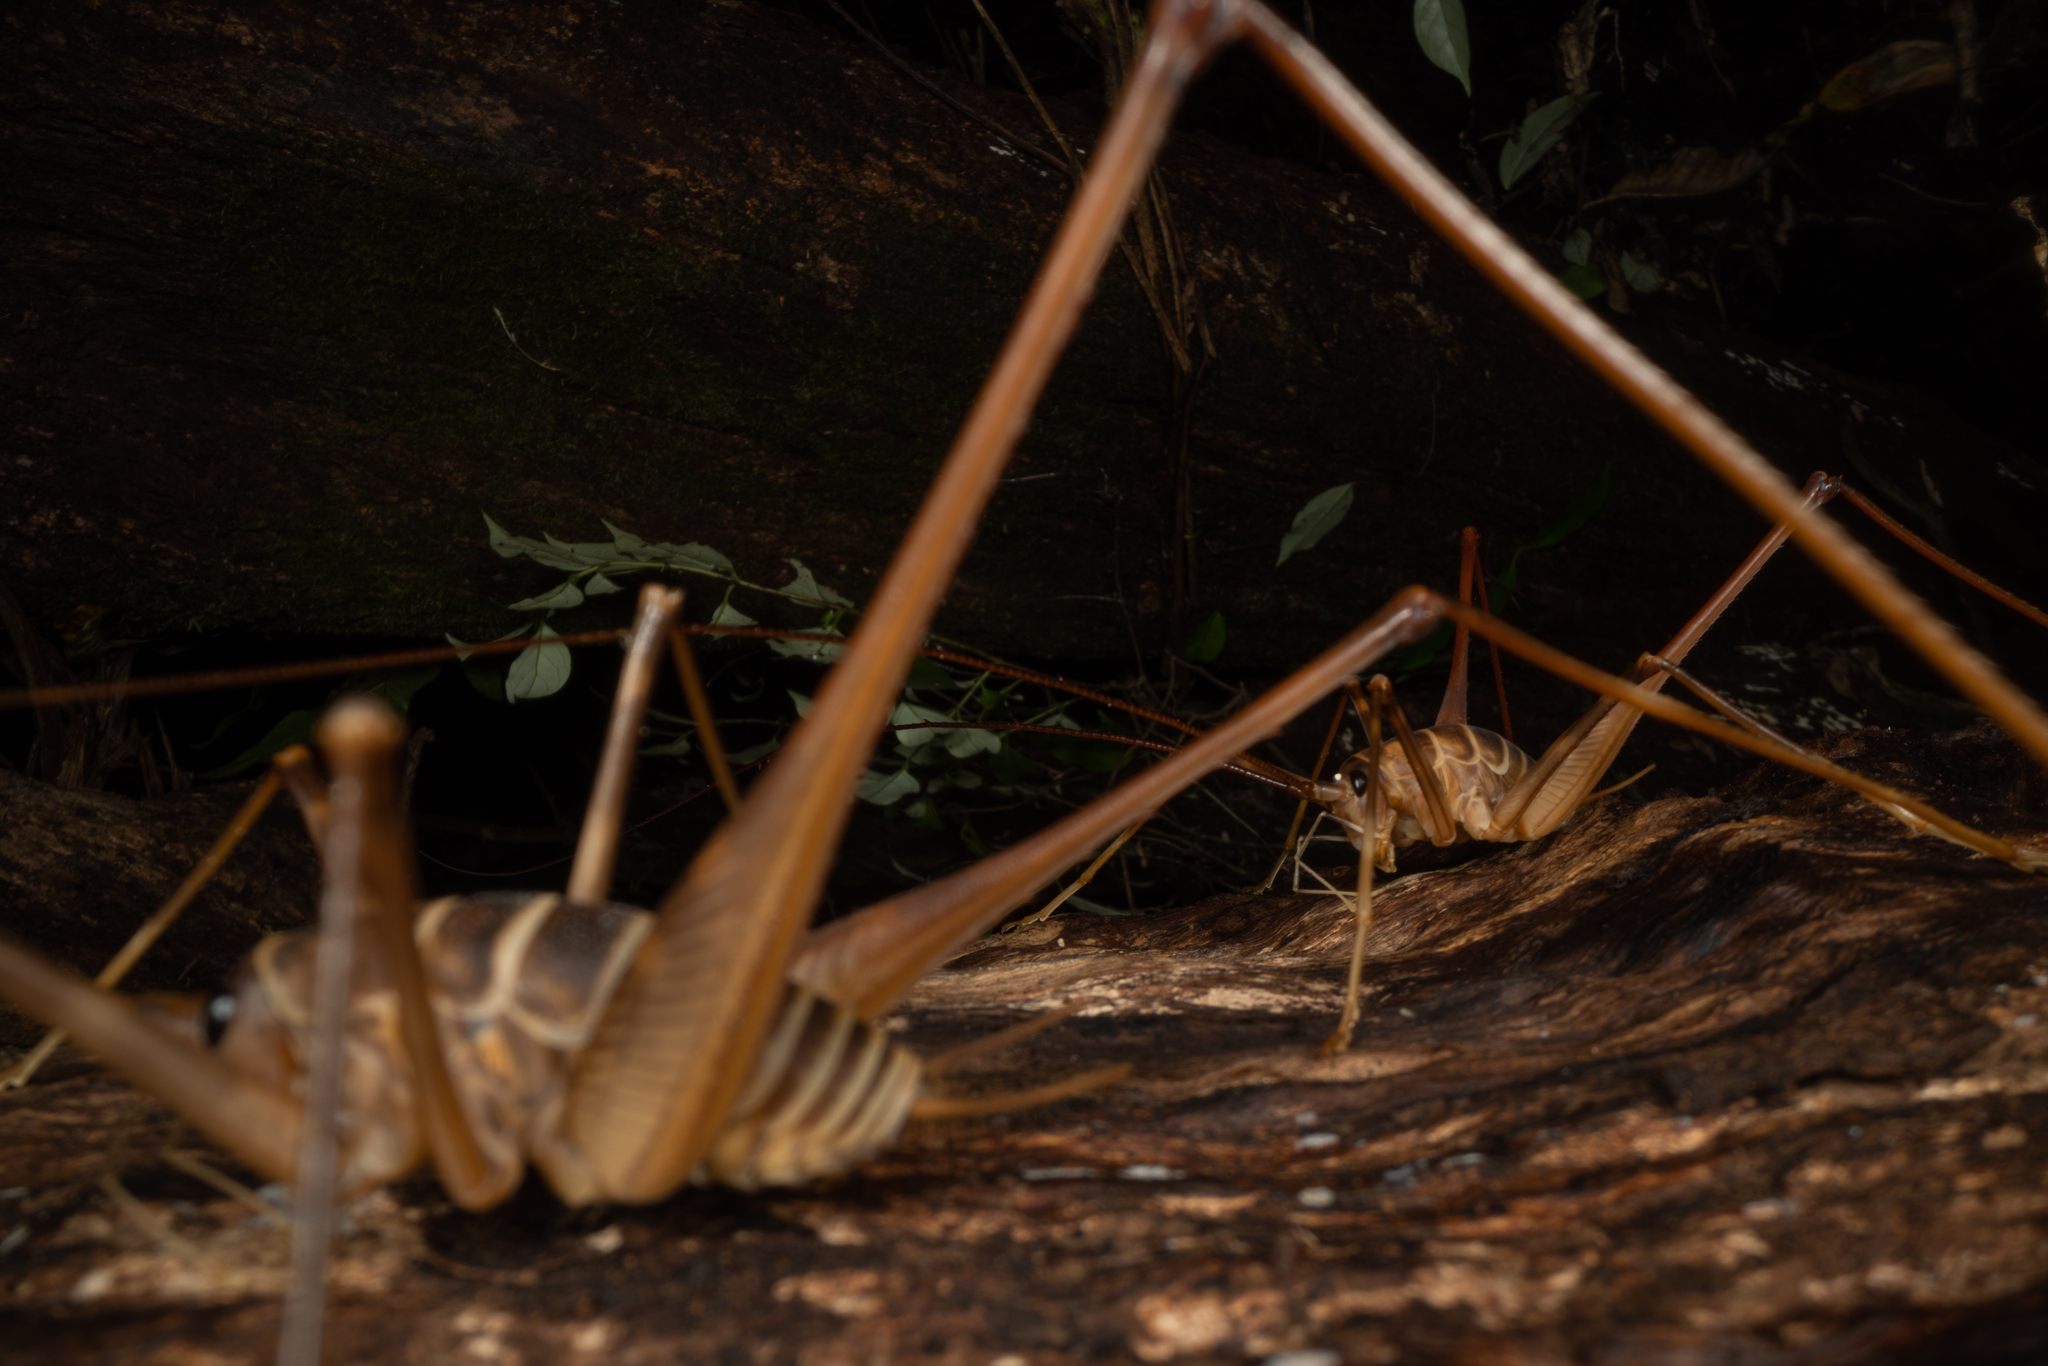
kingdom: Animalia
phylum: Arthropoda
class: Insecta
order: Orthoptera
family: Rhaphidophoridae
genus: Pachyrhamma
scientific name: Pachyrhamma acanthocera
